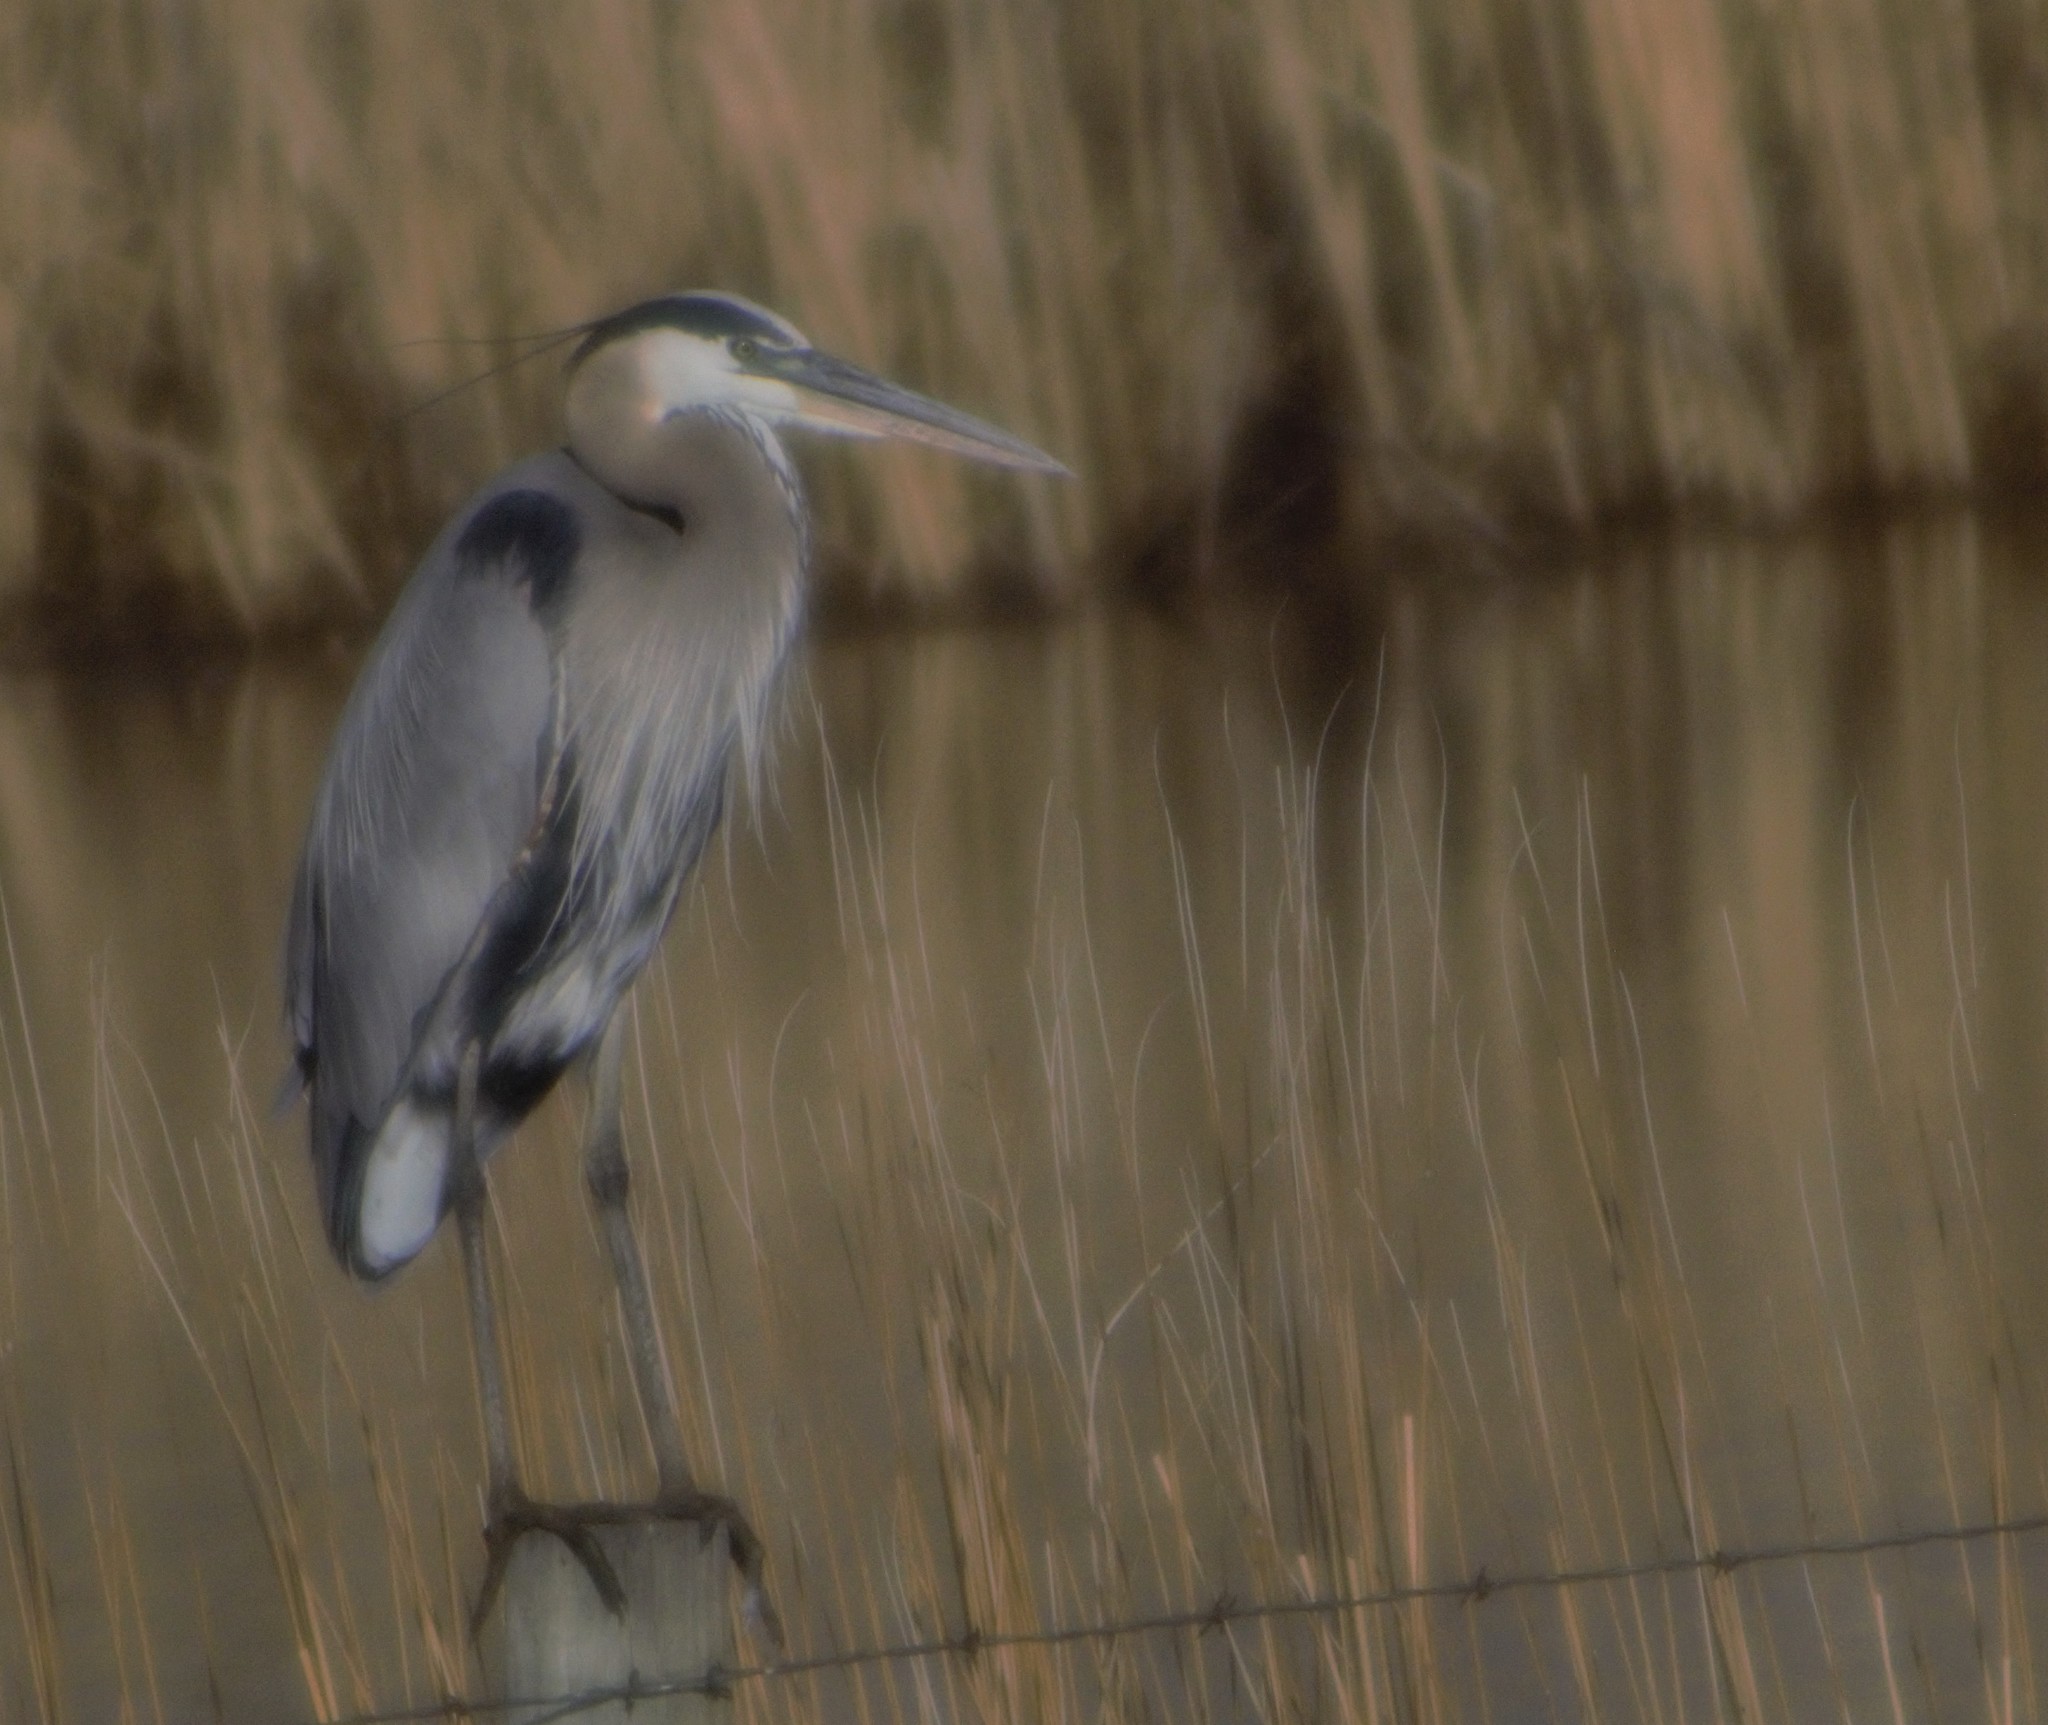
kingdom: Animalia
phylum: Chordata
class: Aves
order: Pelecaniformes
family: Ardeidae
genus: Ardea
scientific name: Ardea herodias
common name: Great blue heron
